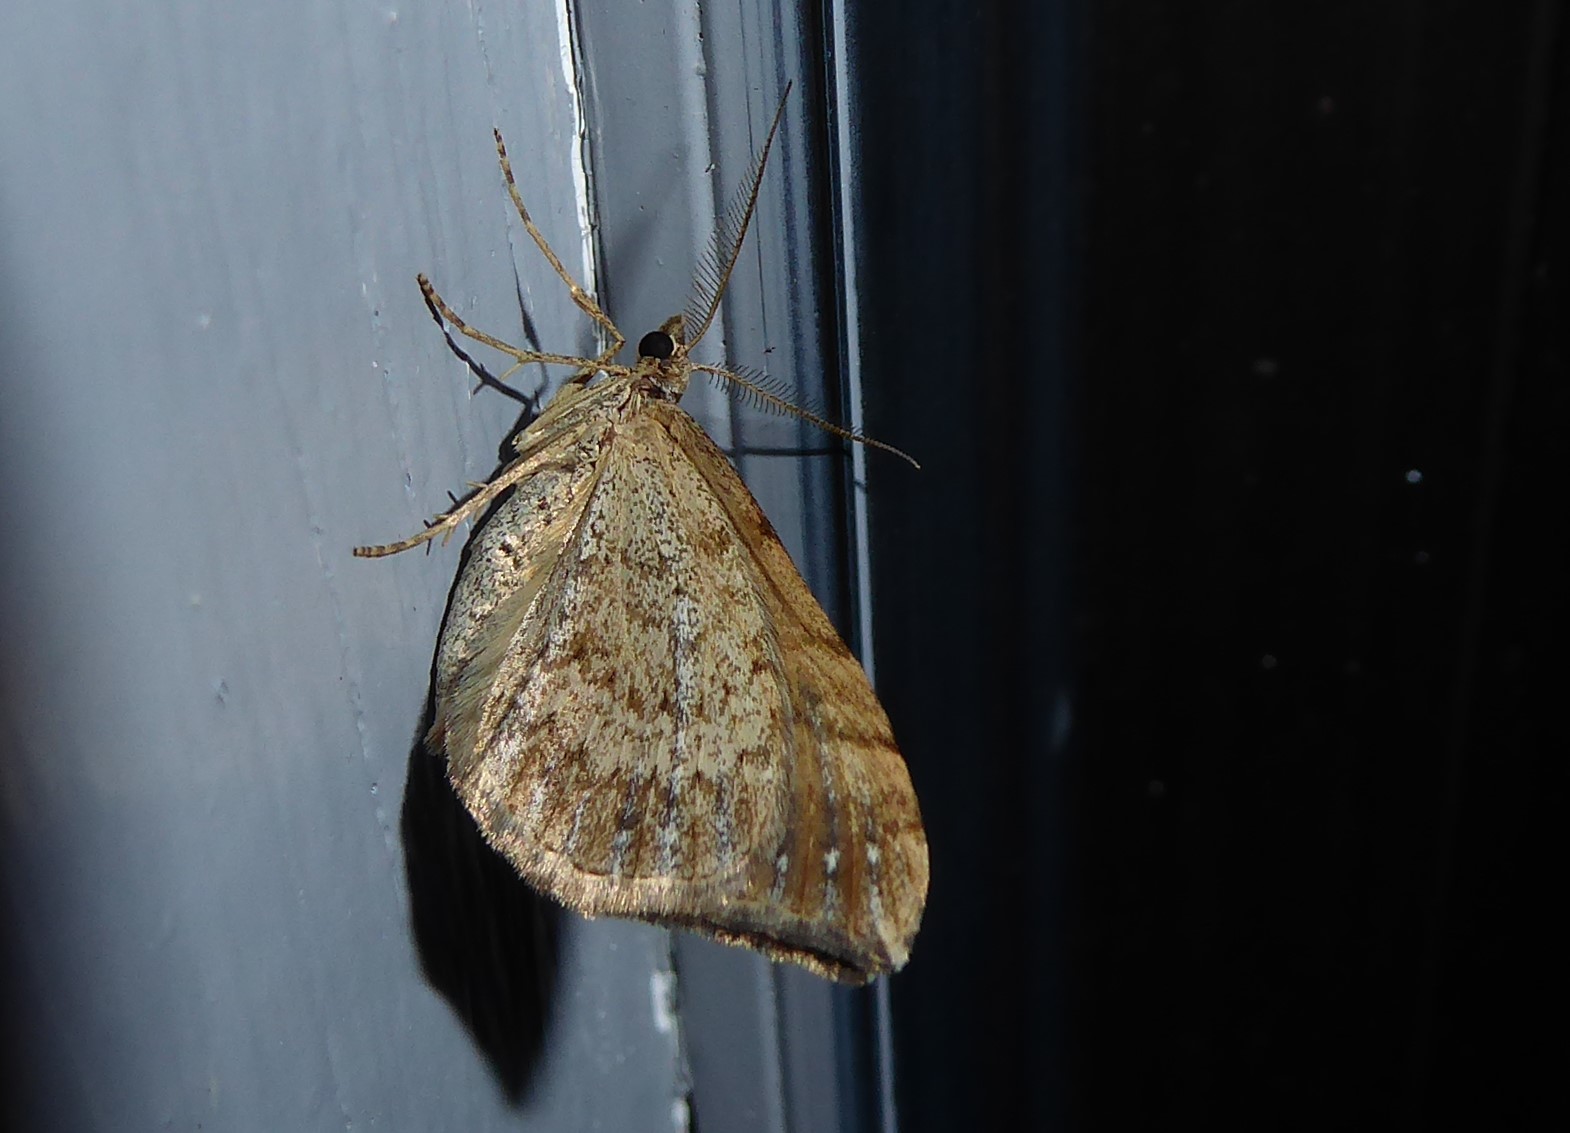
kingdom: Animalia
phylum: Arthropoda
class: Insecta
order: Lepidoptera
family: Geometridae
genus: Xanthorhoe
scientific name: Xanthorhoe semifissata
